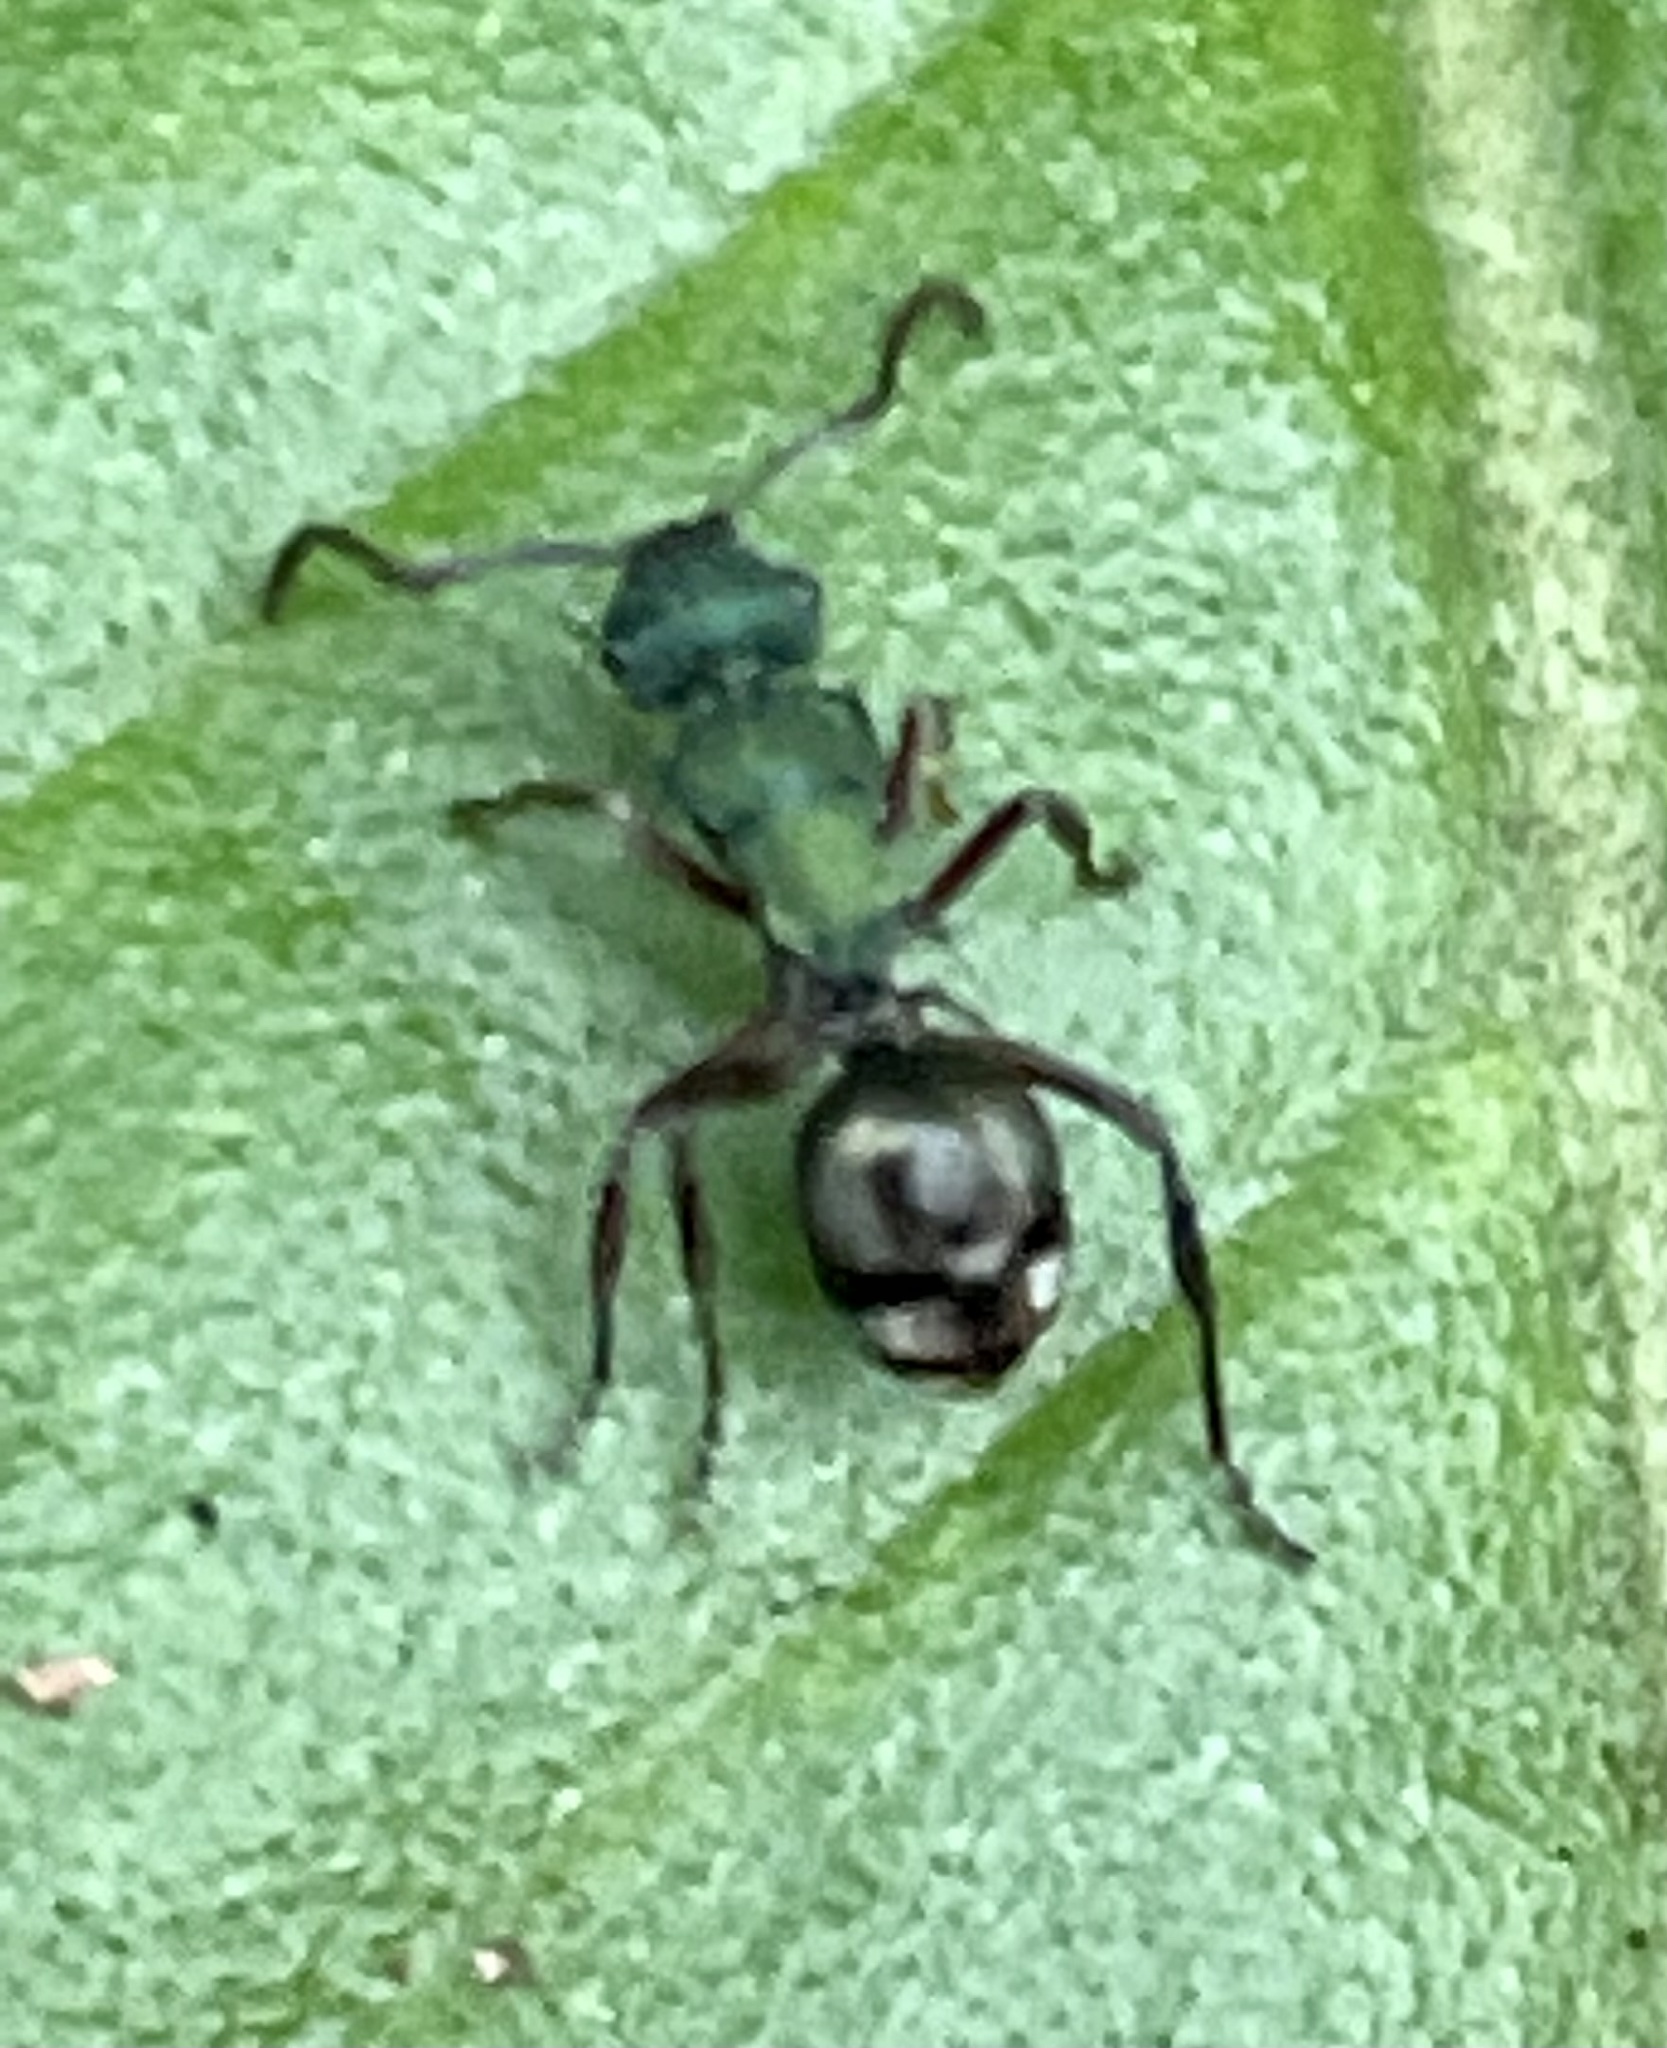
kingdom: Animalia
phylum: Arthropoda
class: Insecta
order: Hymenoptera
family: Formicidae
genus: Polyrhachis
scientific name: Polyrhachis hookeri
